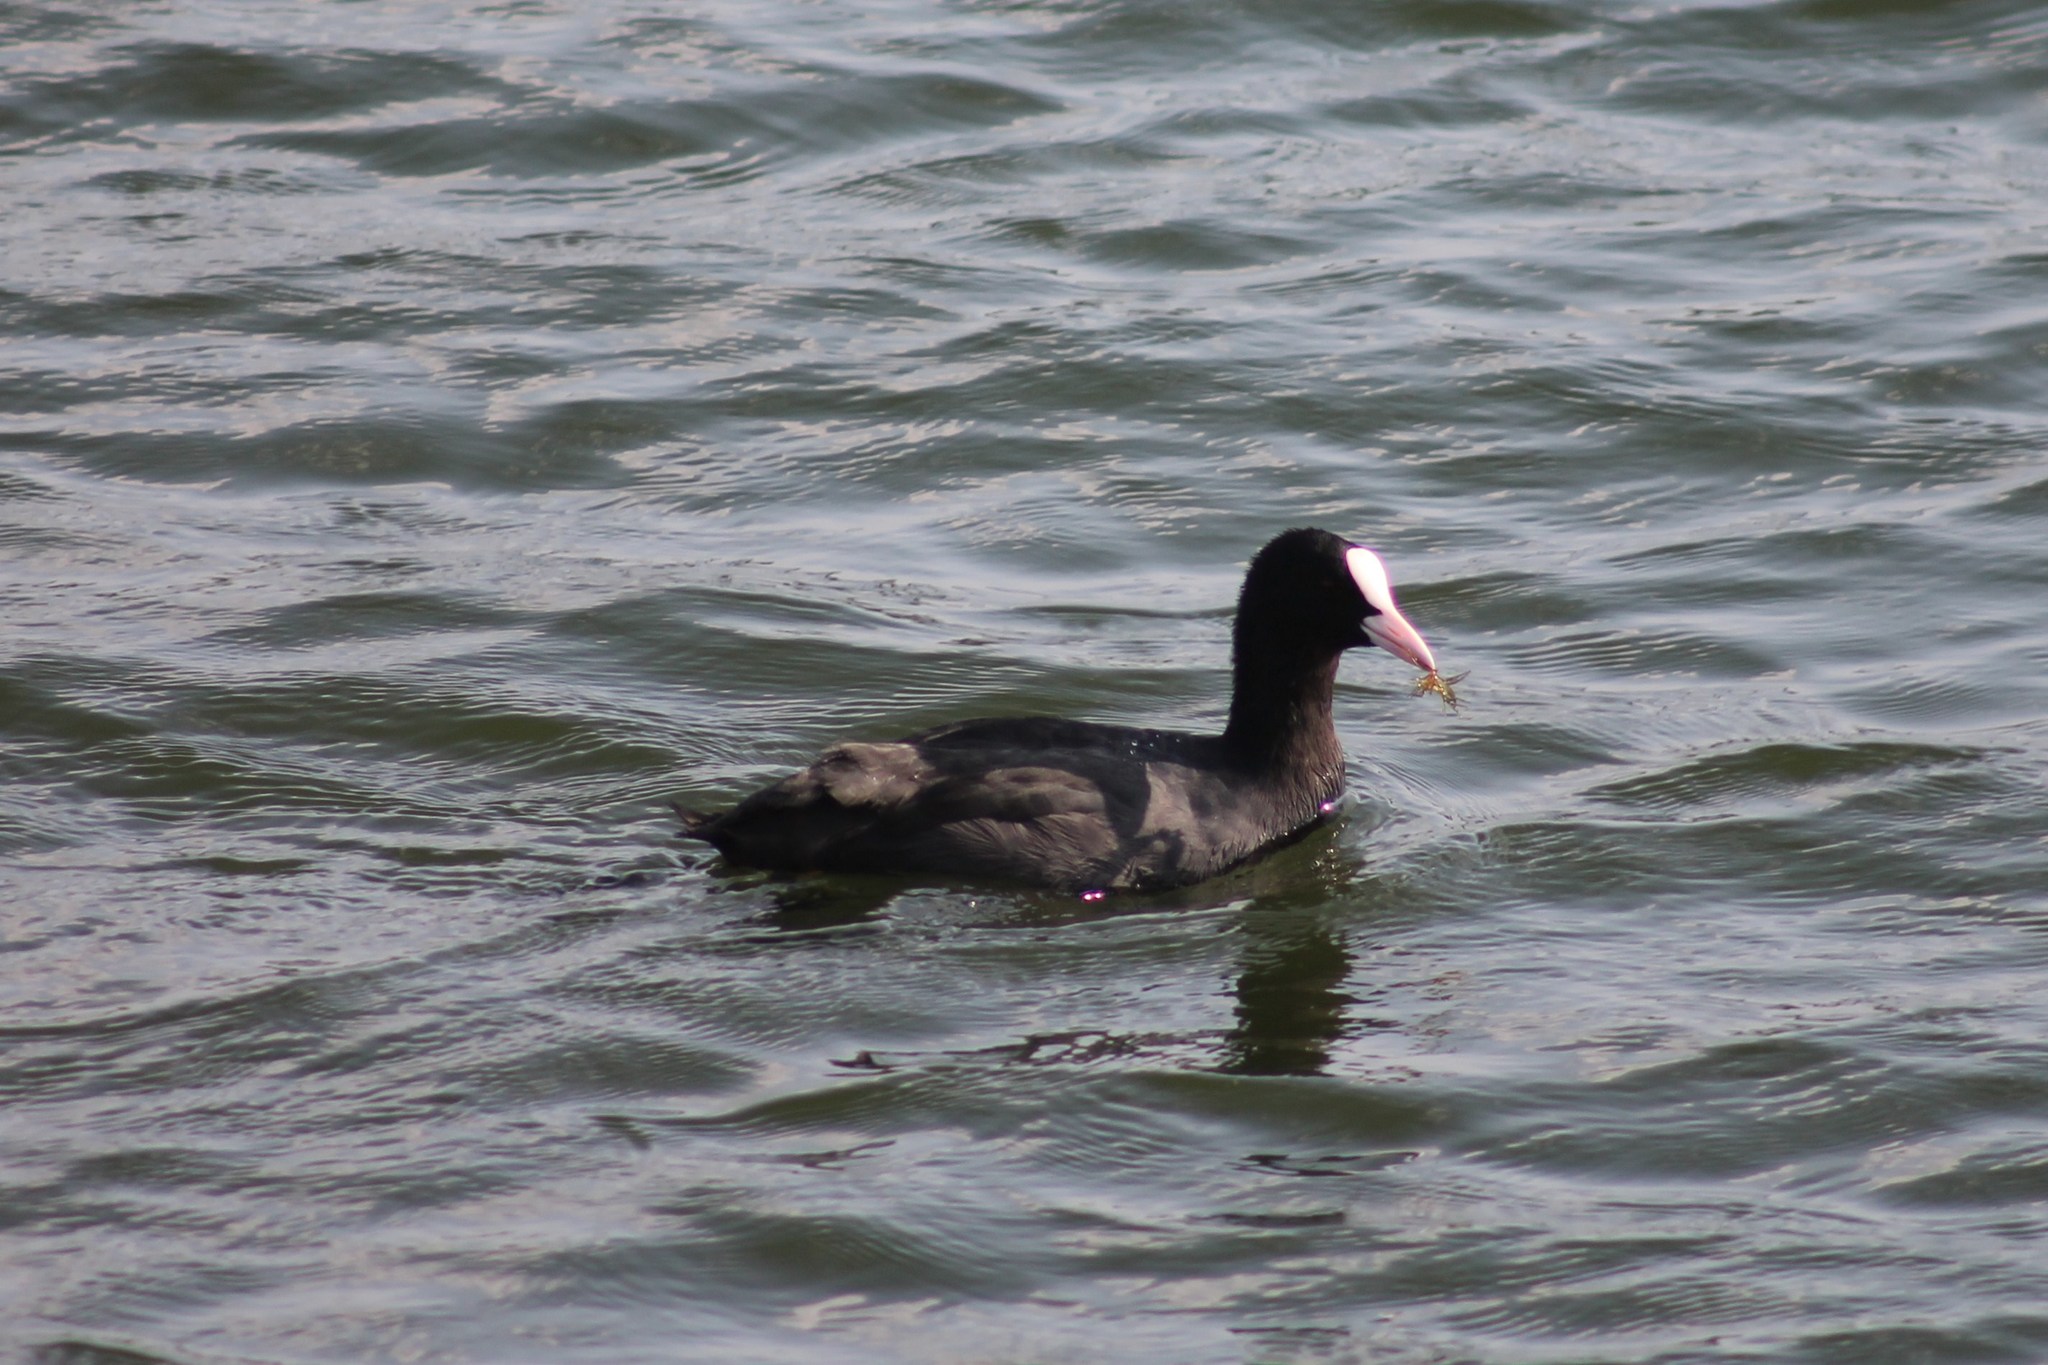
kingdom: Animalia
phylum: Chordata
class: Aves
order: Gruiformes
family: Rallidae
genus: Fulica
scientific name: Fulica atra
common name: Eurasian coot
